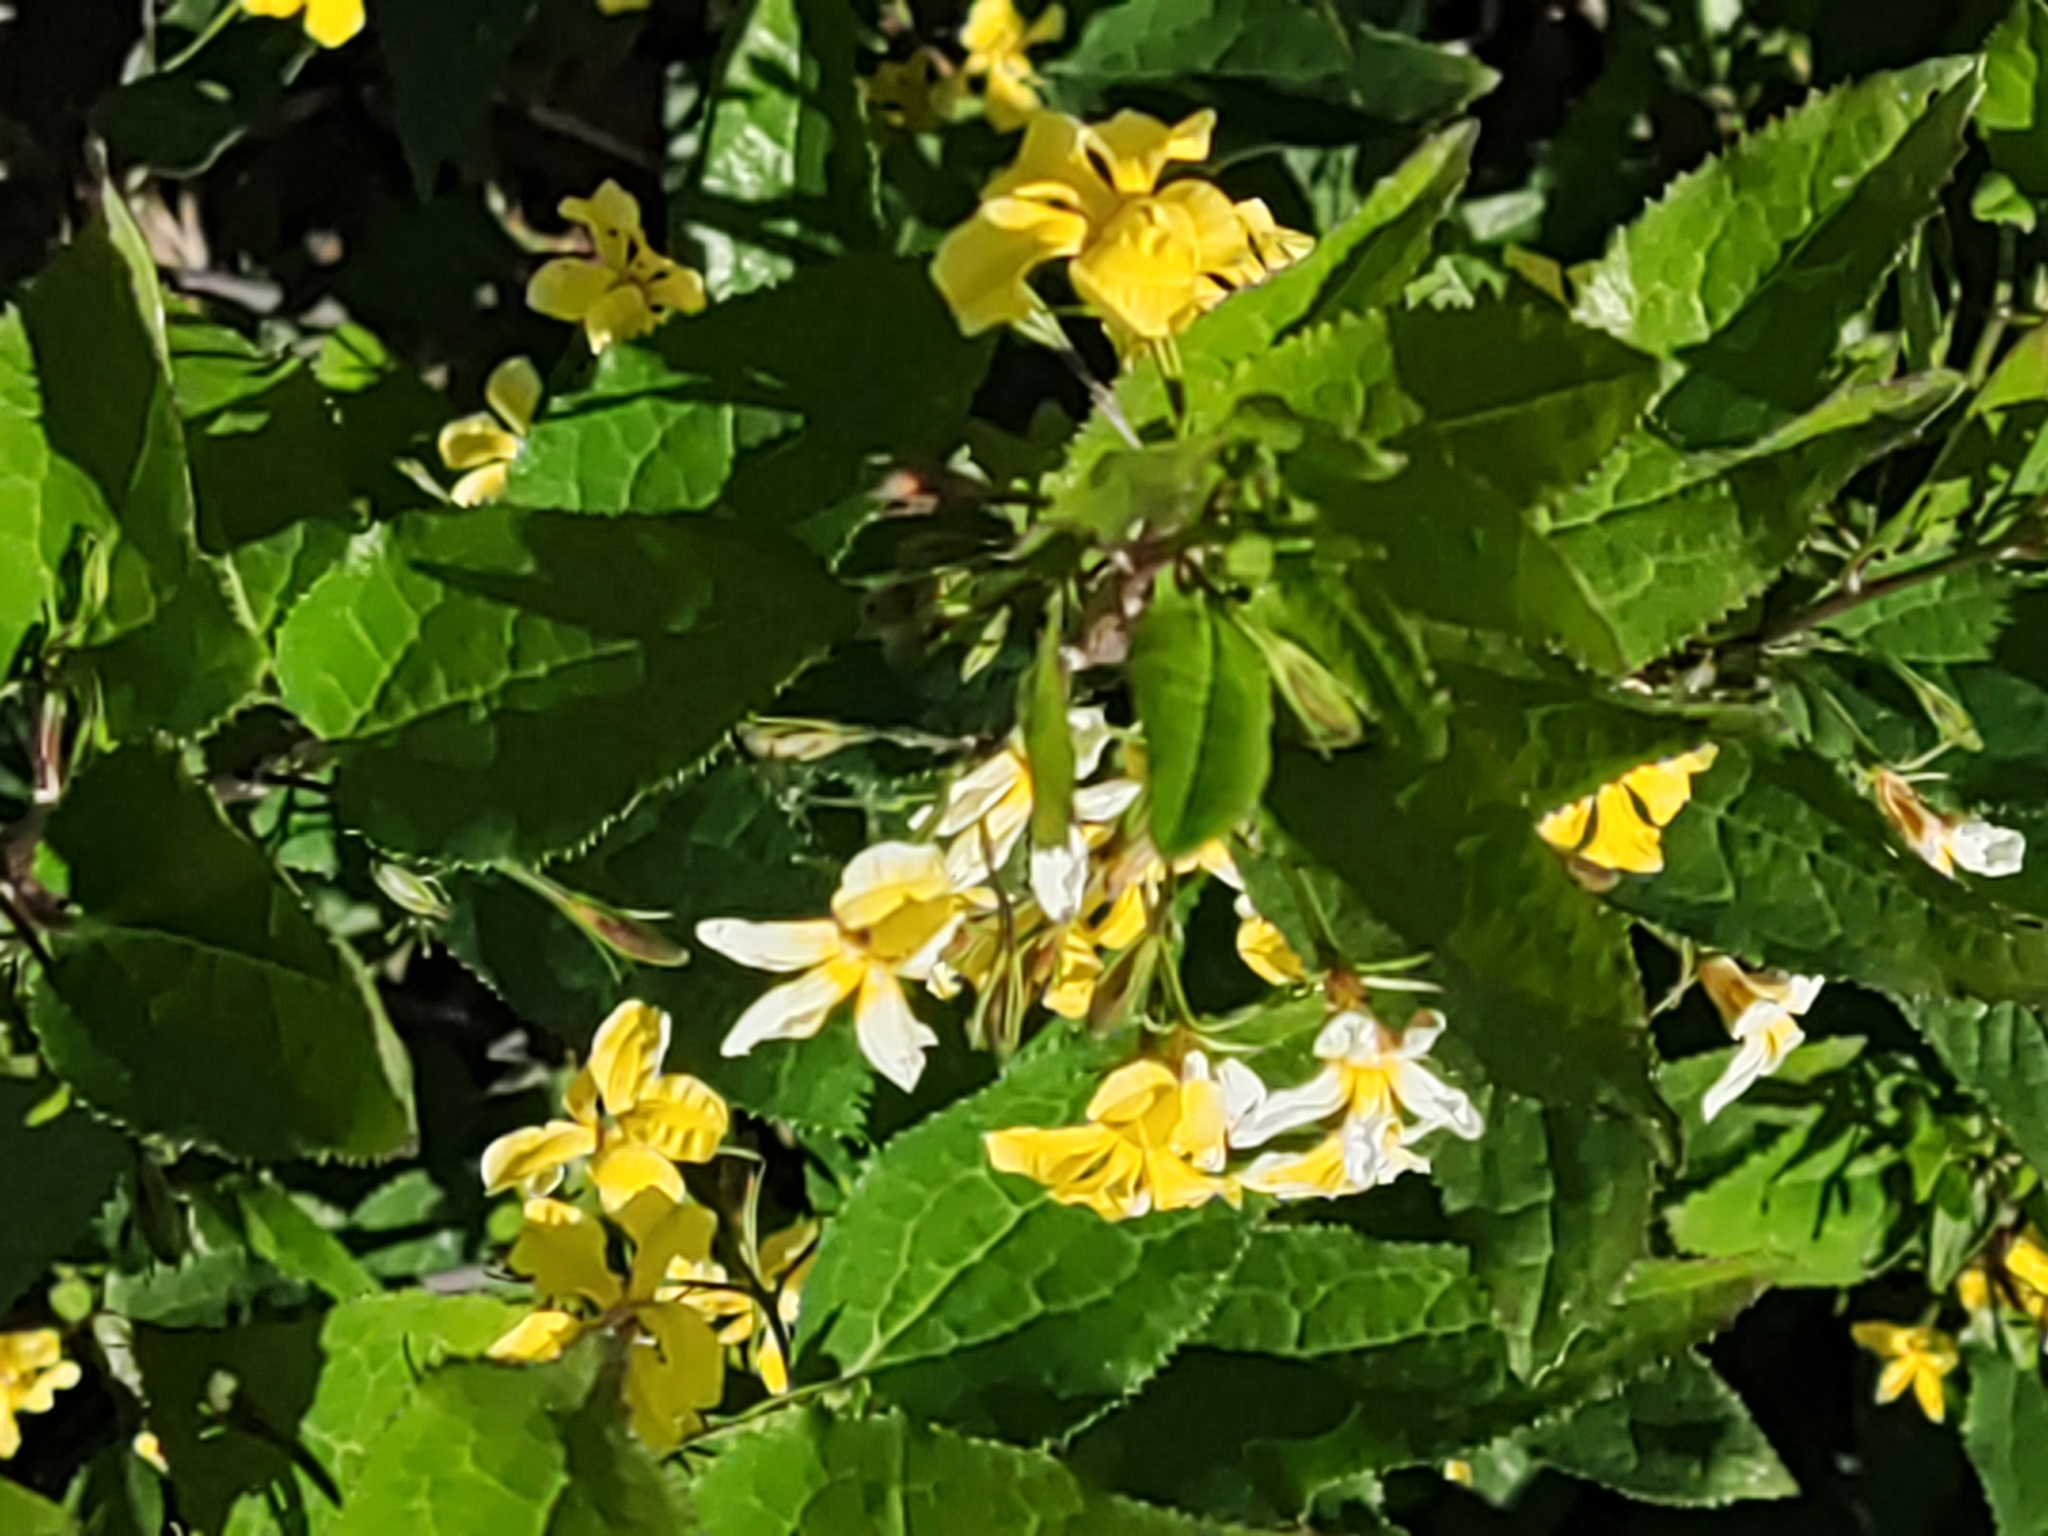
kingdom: Plantae
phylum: Tracheophyta
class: Magnoliopsida
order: Asterales
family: Goodeniaceae
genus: Goodenia
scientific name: Goodenia ovata
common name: Hop goodenia
